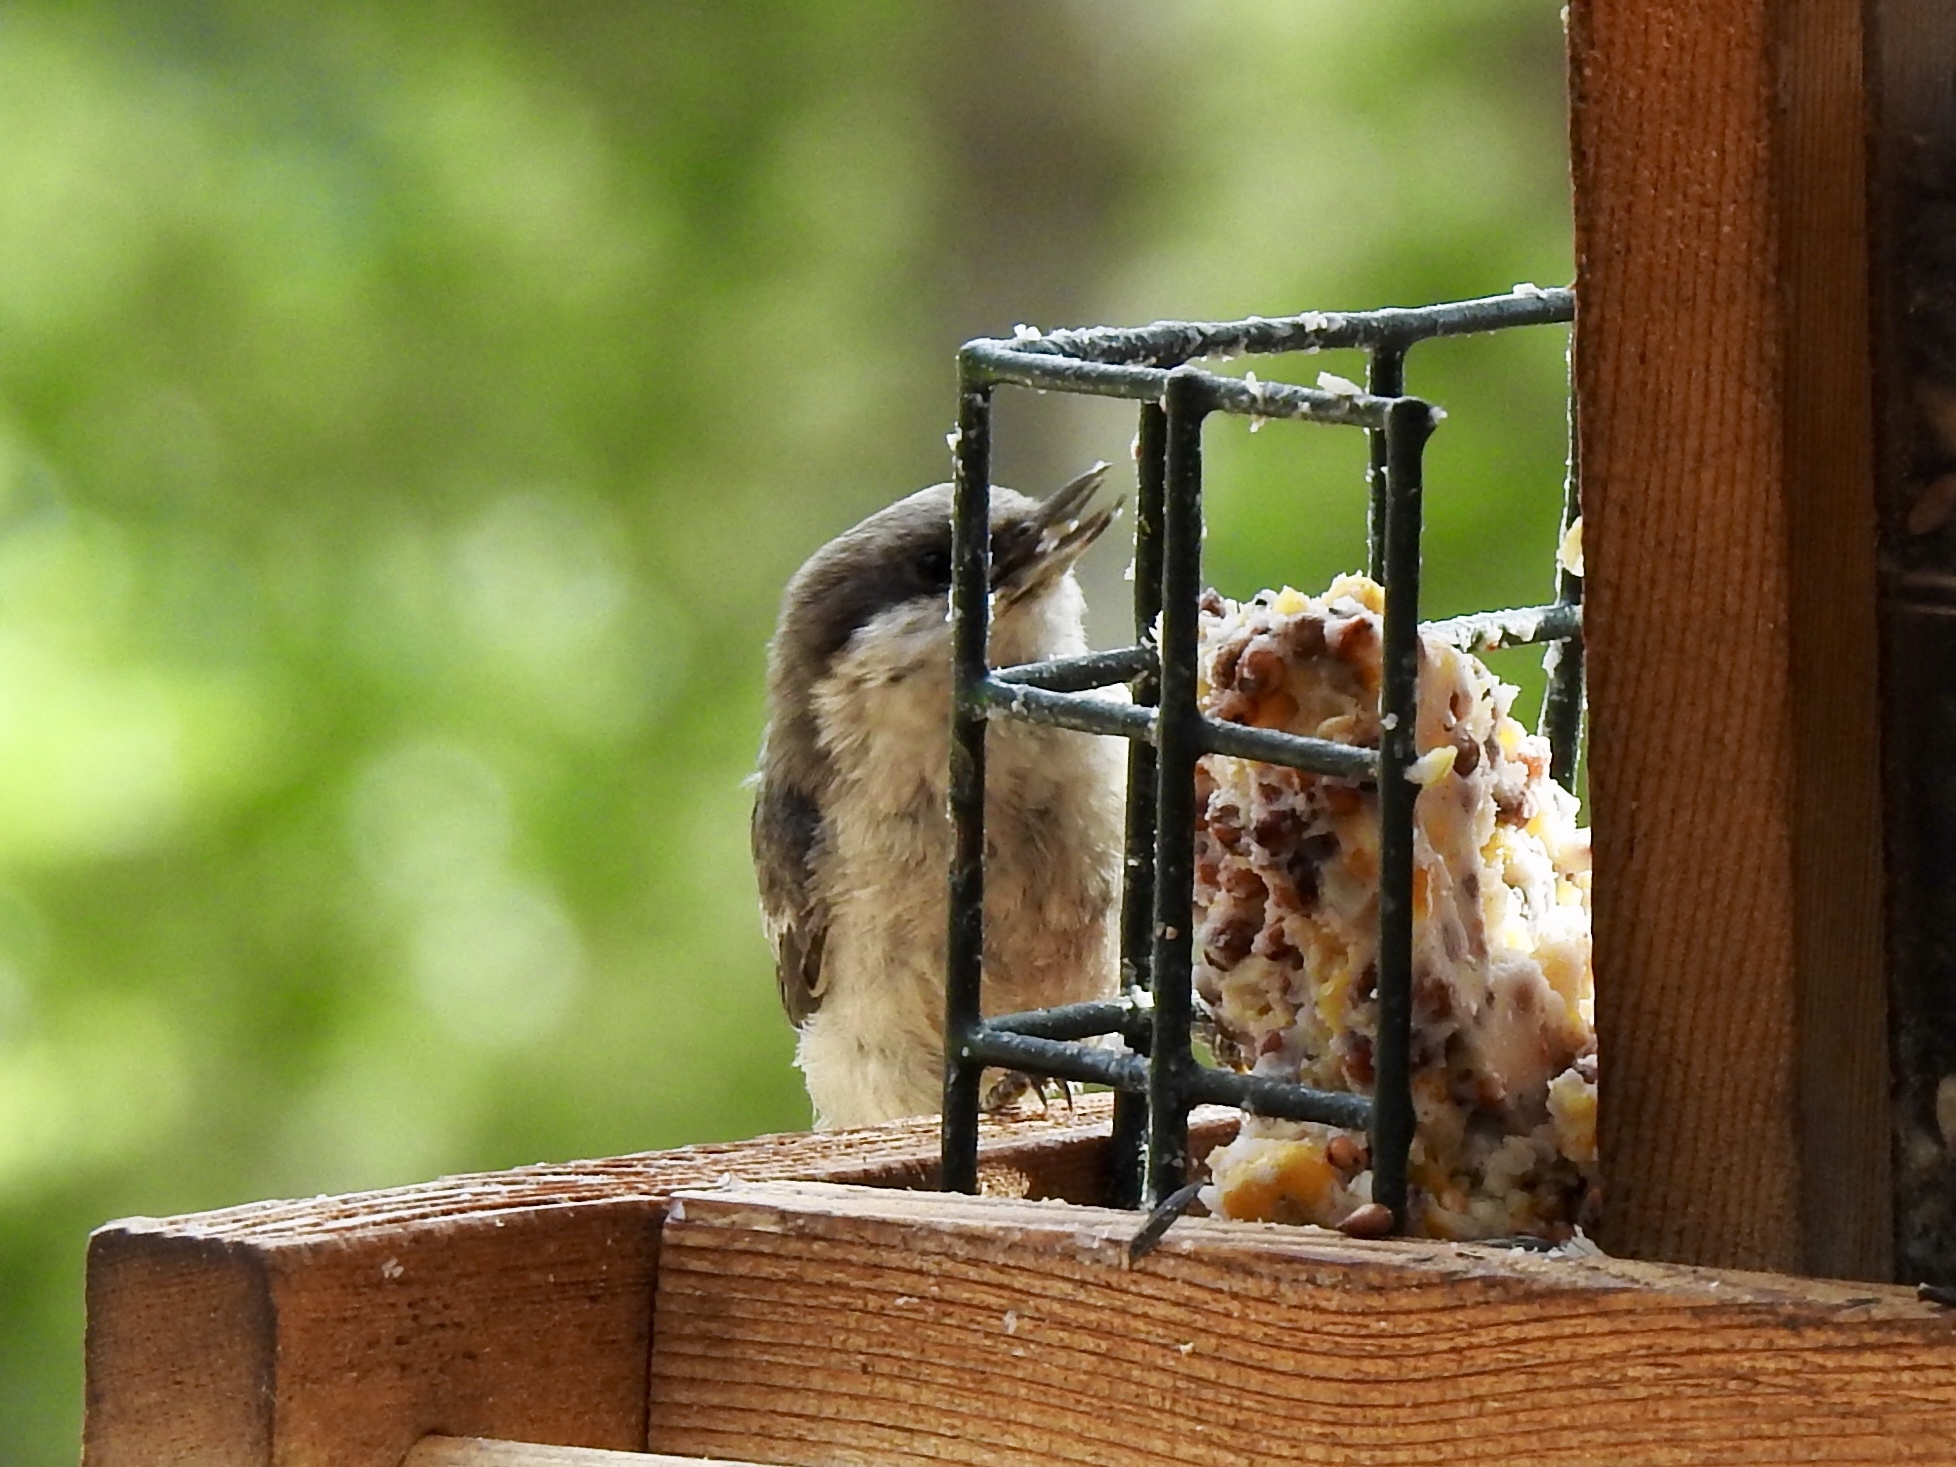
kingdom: Animalia
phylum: Chordata
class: Aves
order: Passeriformes
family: Sittidae
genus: Sitta
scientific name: Sitta pygmaea
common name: Pygmy nuthatch
